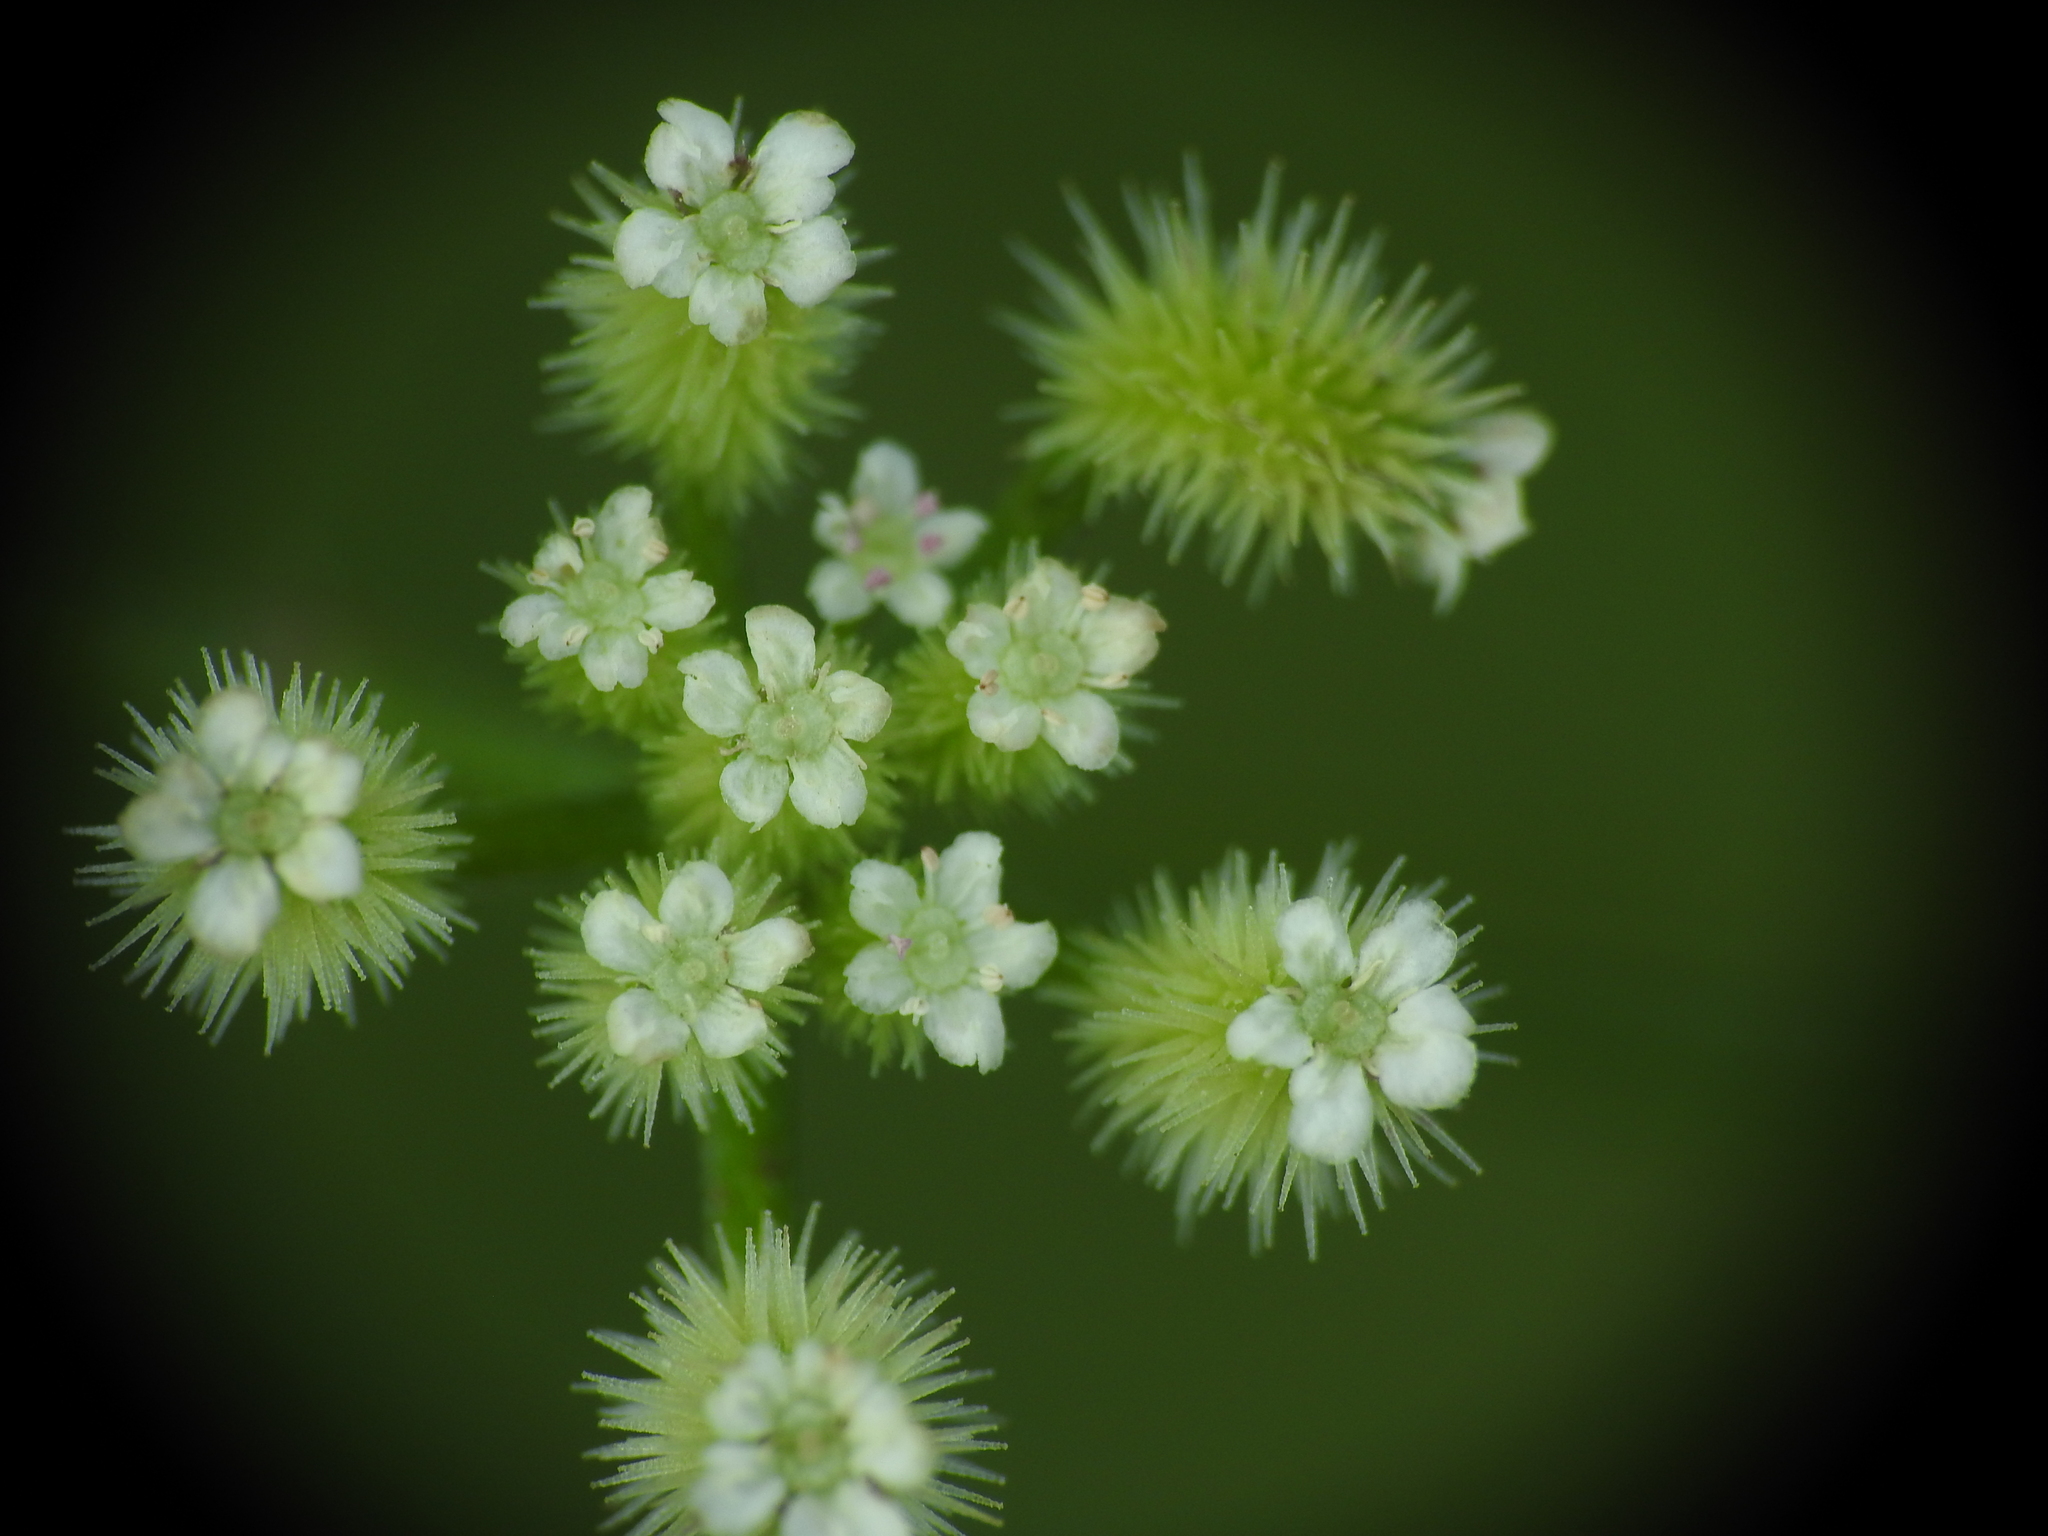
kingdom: Plantae
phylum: Tracheophyta
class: Magnoliopsida
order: Apiales
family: Apiaceae
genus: Torilis
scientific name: Torilis leptophylla
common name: Bristlefruit hedgeparsley
